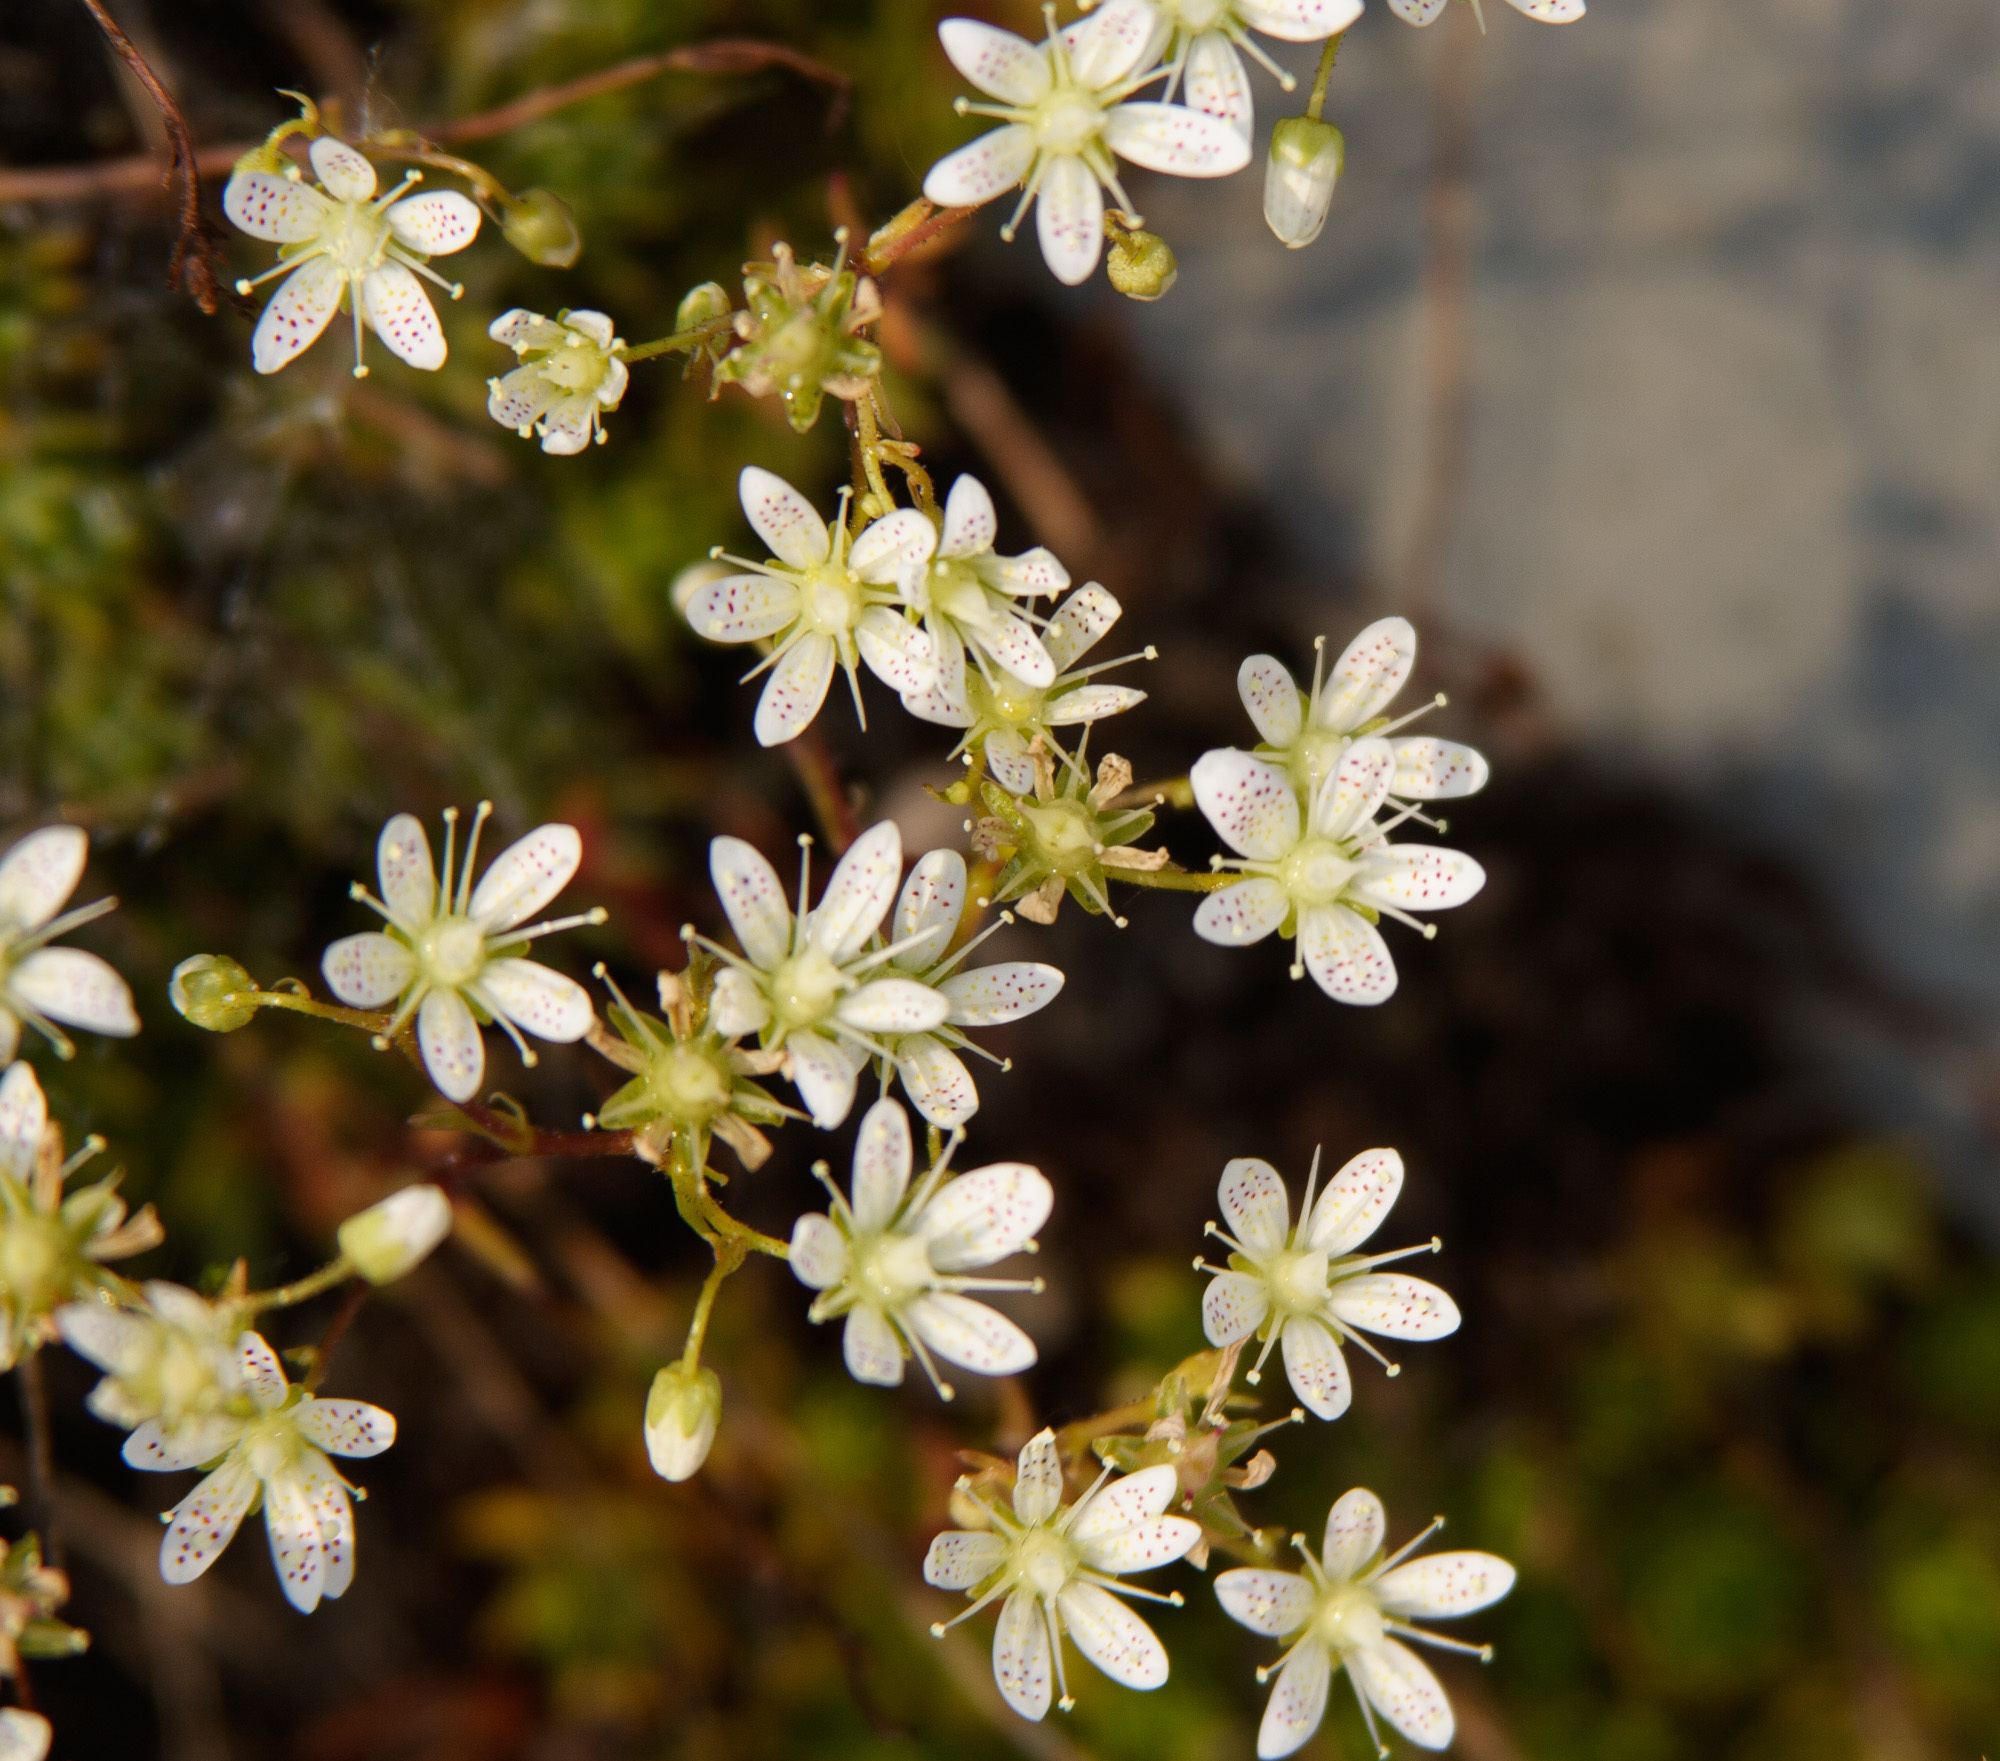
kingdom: Plantae
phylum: Tracheophyta
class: Magnoliopsida
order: Saxifragales
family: Saxifragaceae
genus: Saxifraga
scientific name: Saxifraga bronchialis
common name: Matted saxifrage
